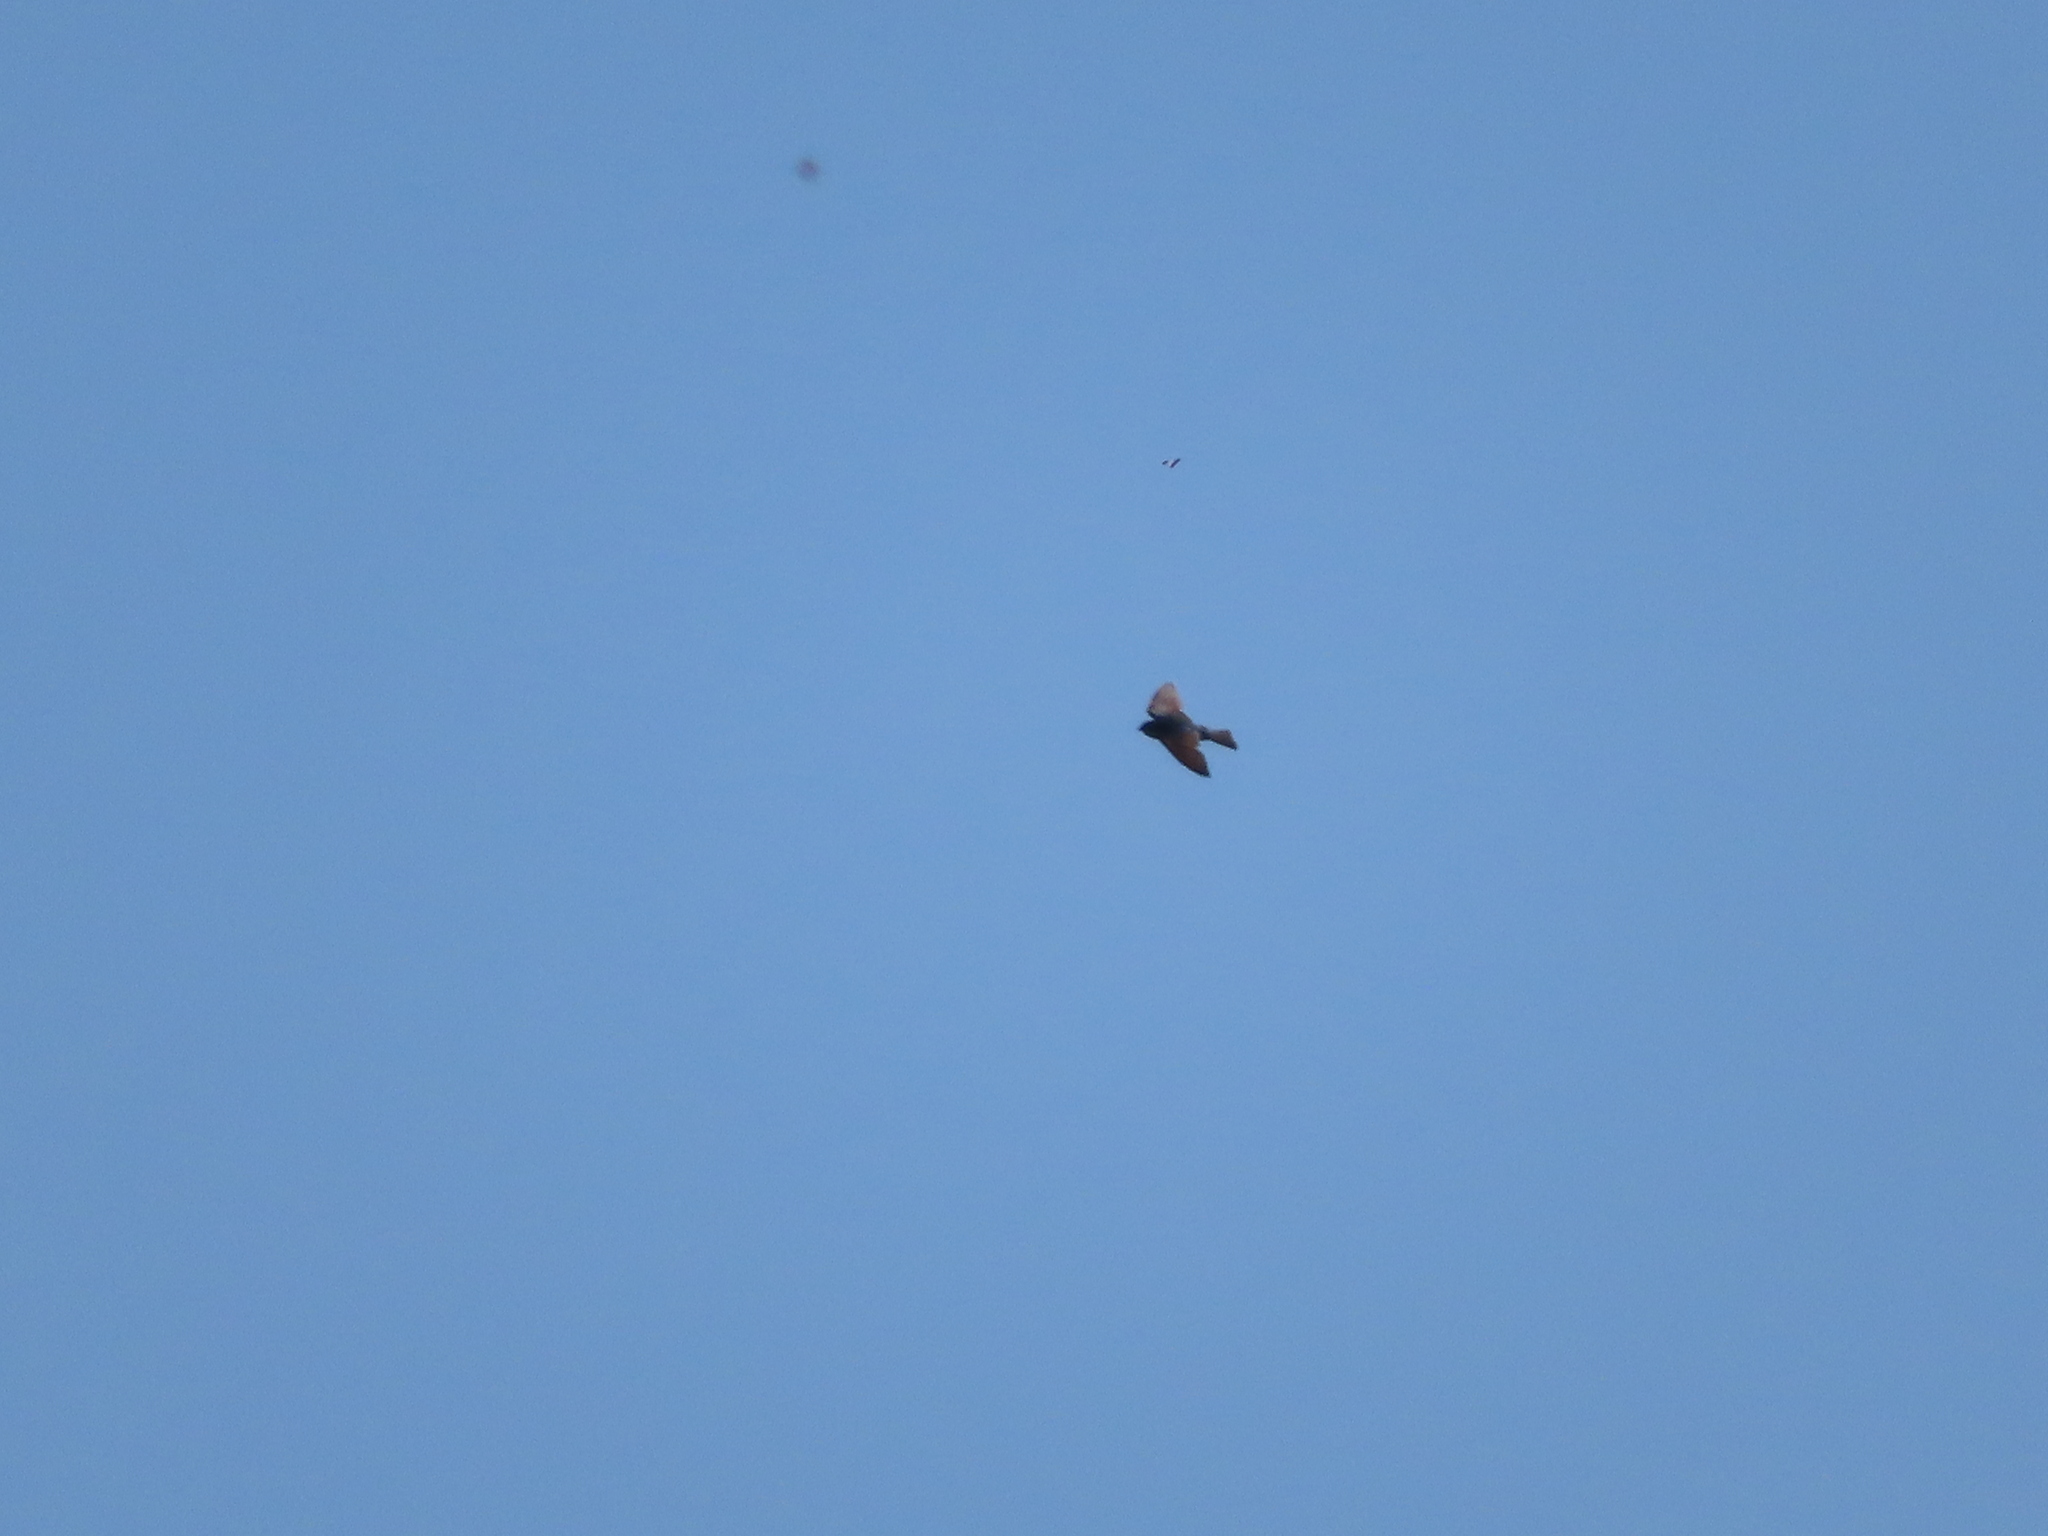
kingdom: Animalia
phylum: Chordata
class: Aves
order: Passeriformes
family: Hirundinidae
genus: Tachycineta
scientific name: Tachycineta bicolor
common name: Tree swallow
